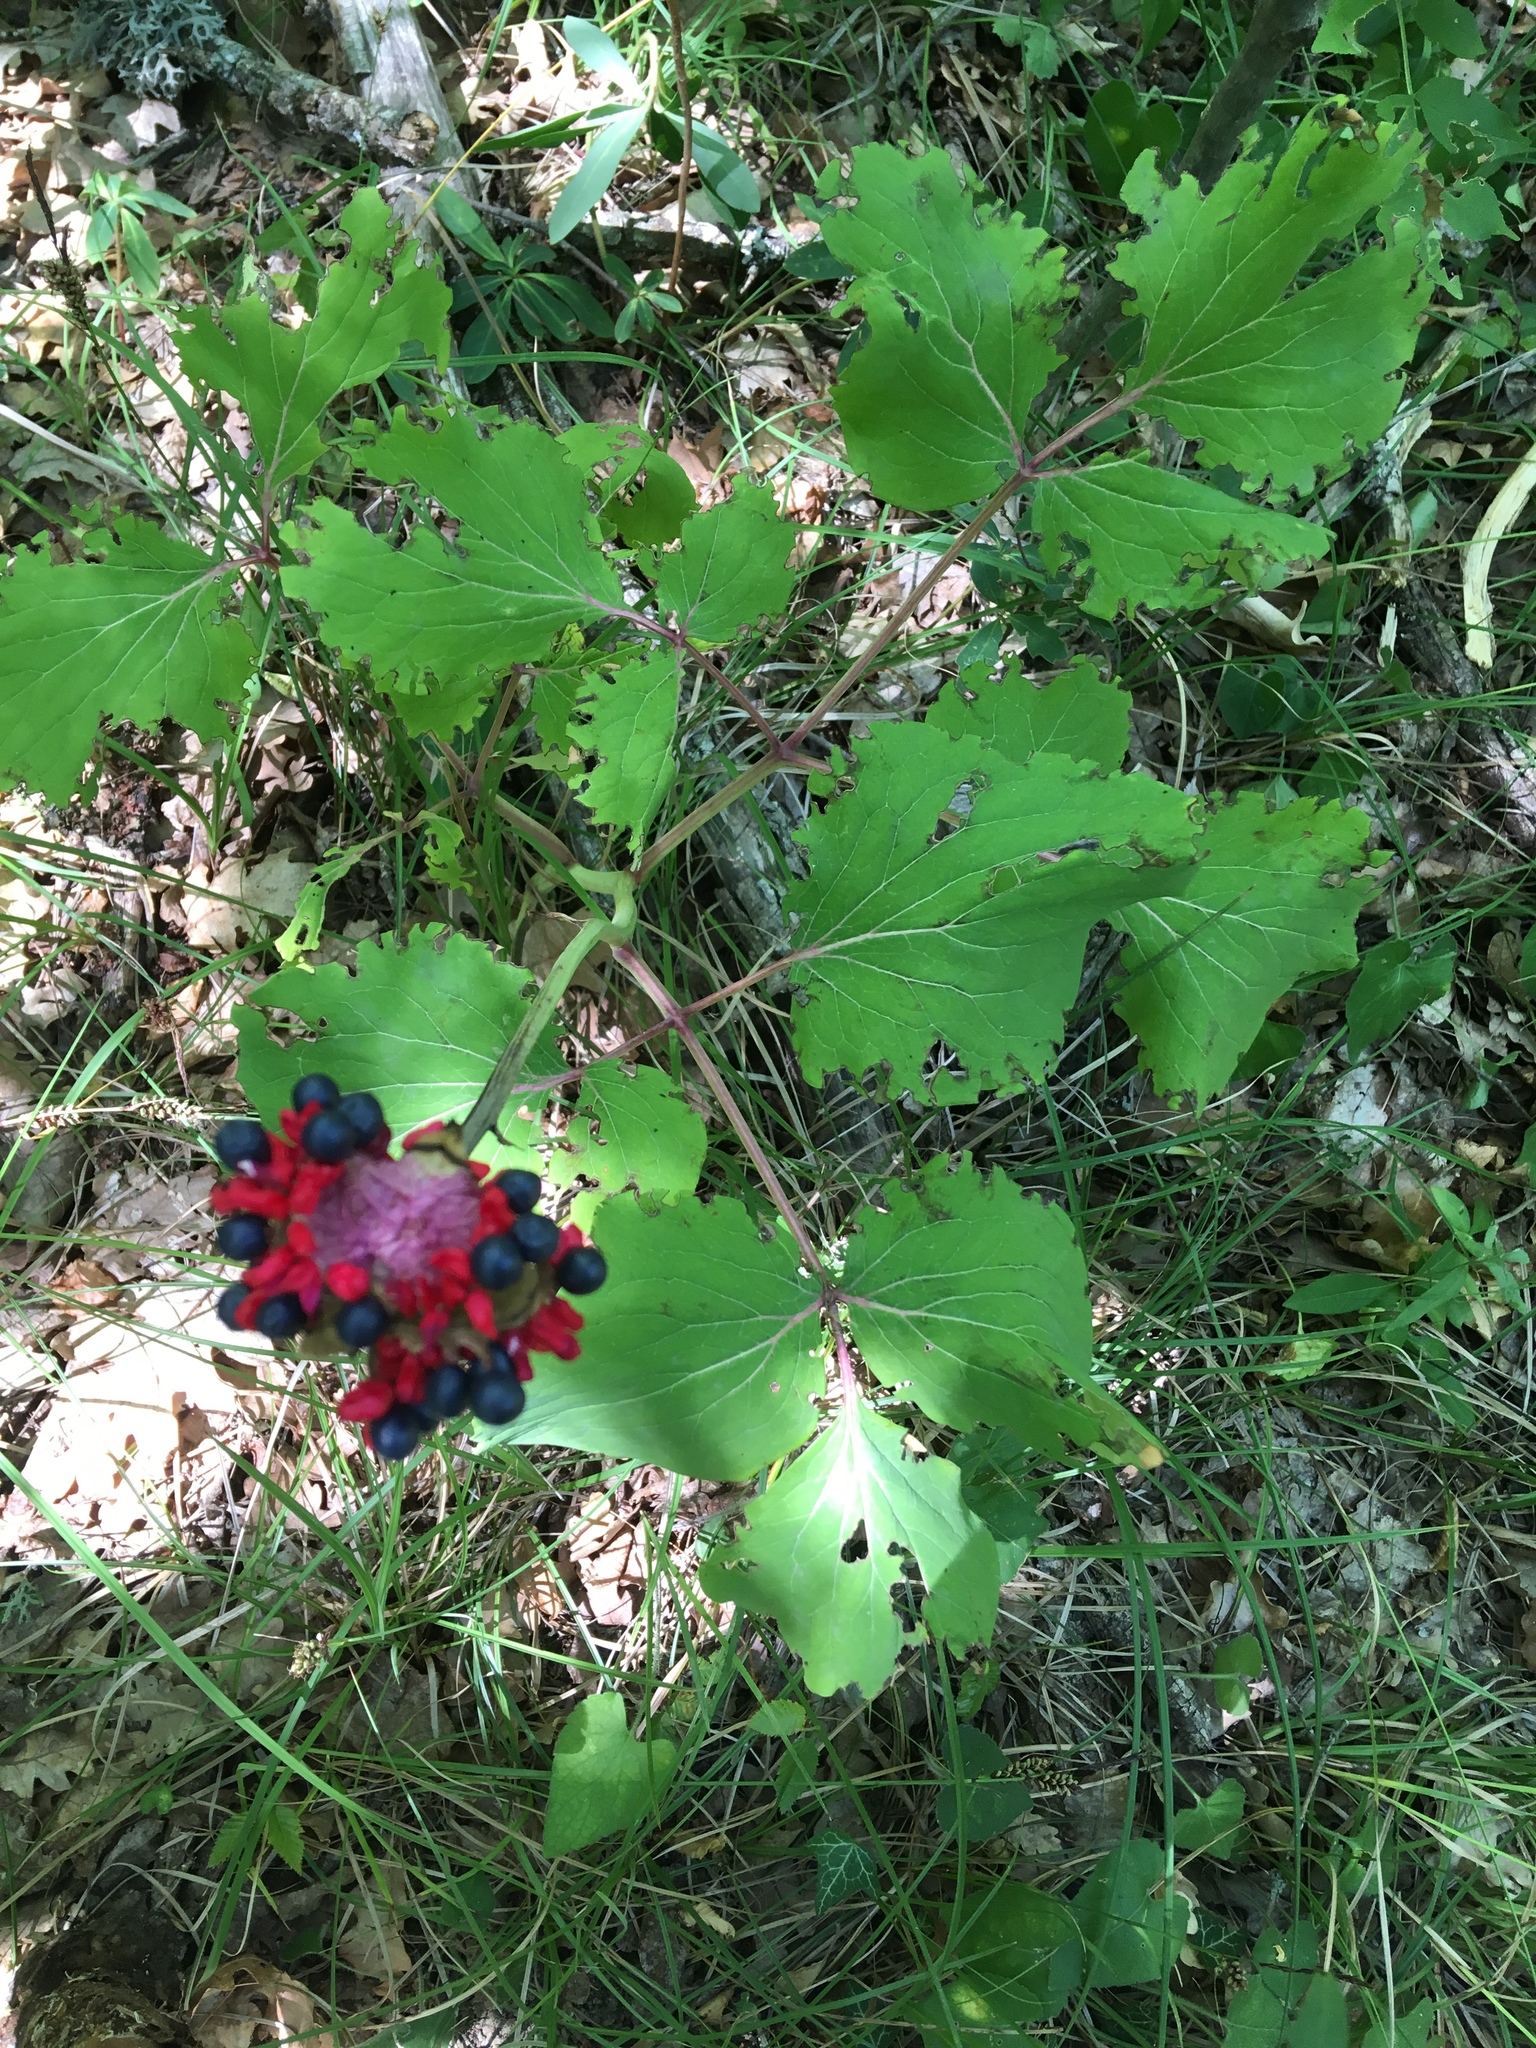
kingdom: Plantae
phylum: Tracheophyta
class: Magnoliopsida
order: Saxifragales
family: Paeoniaceae
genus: Paeonia
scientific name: Paeonia daurica
